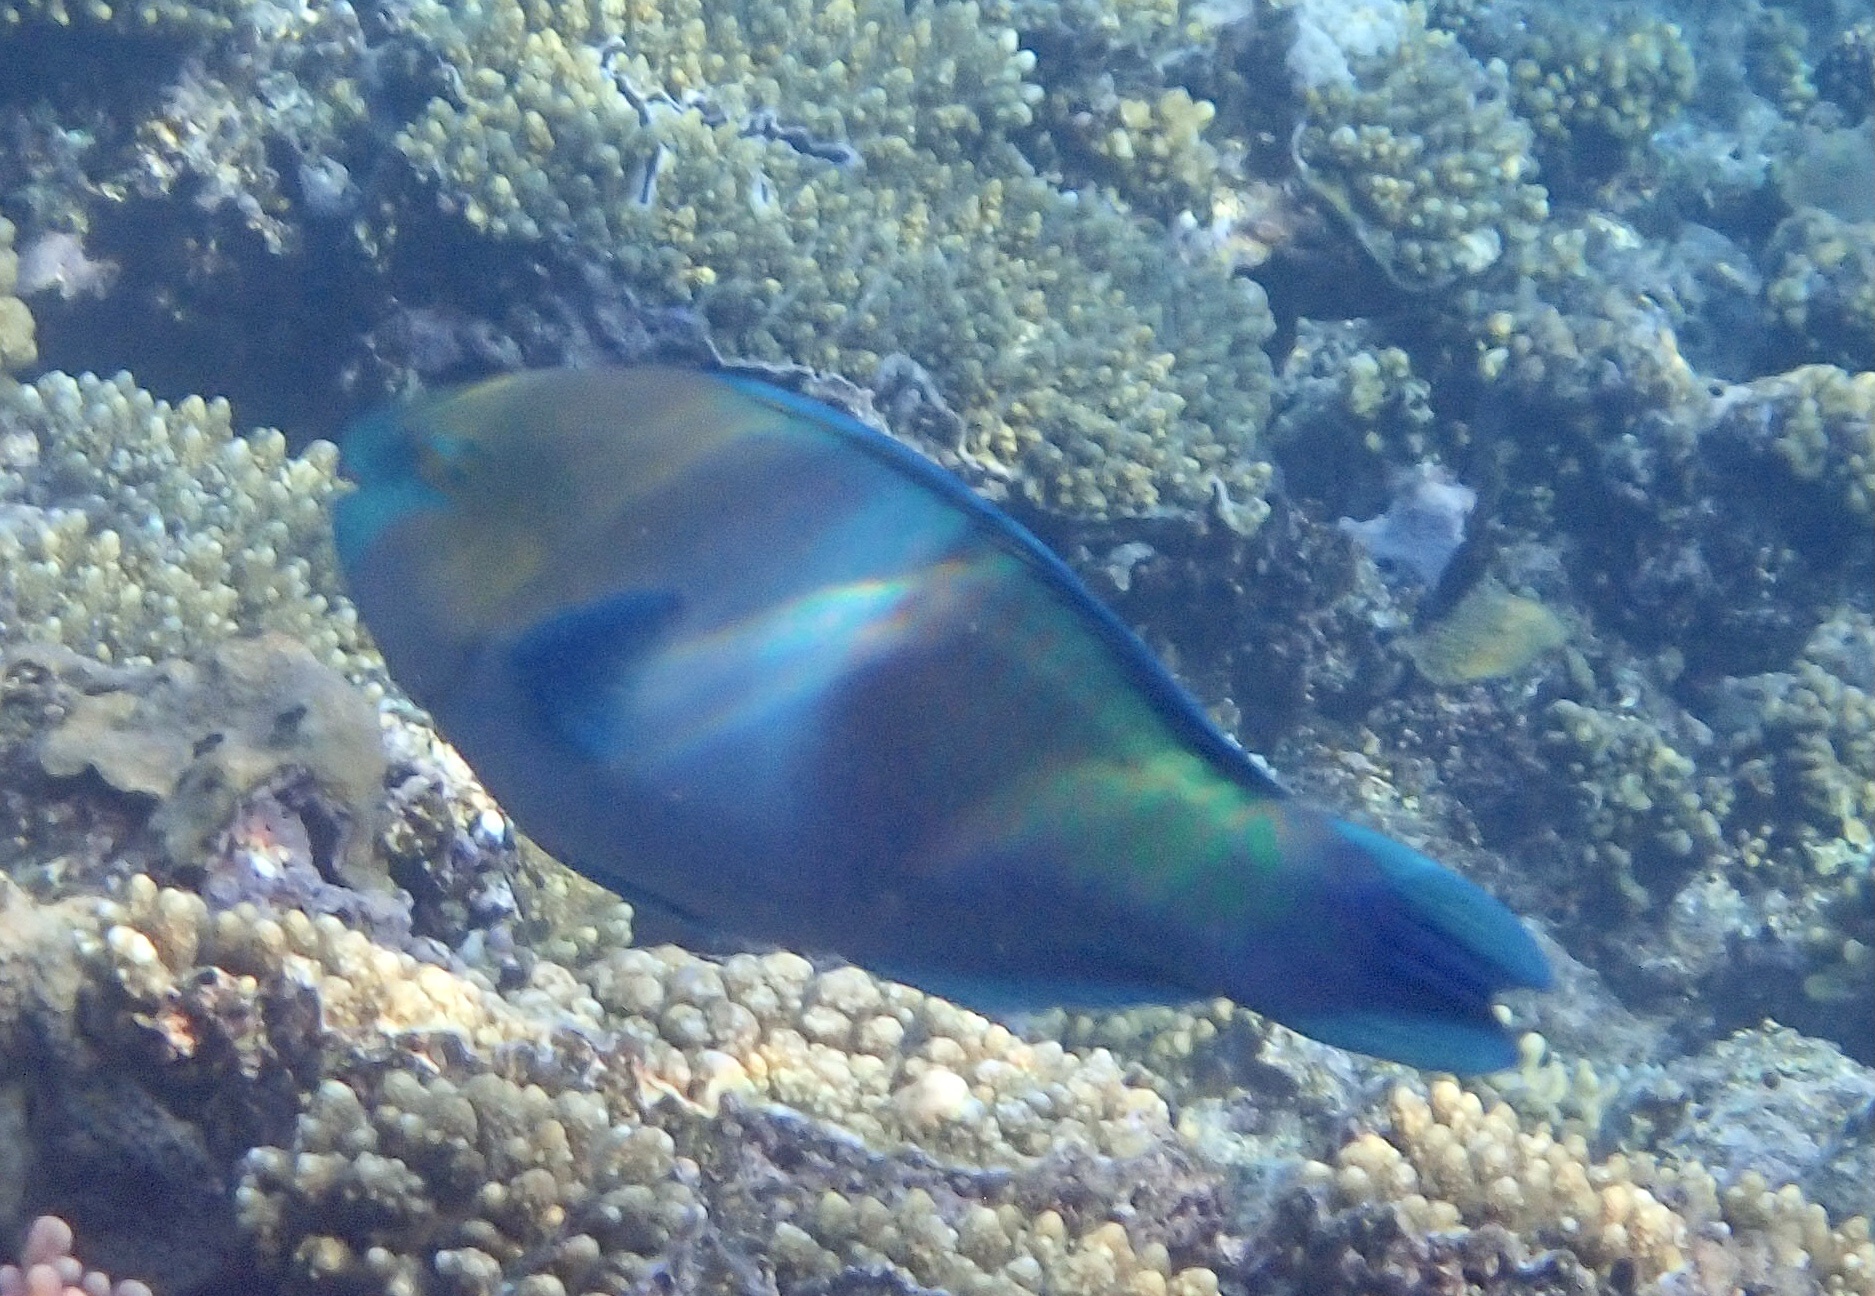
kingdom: Animalia
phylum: Chordata
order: Perciformes
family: Scaridae
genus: Scarus
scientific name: Scarus ferrugineus
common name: Rusty parrotfish
